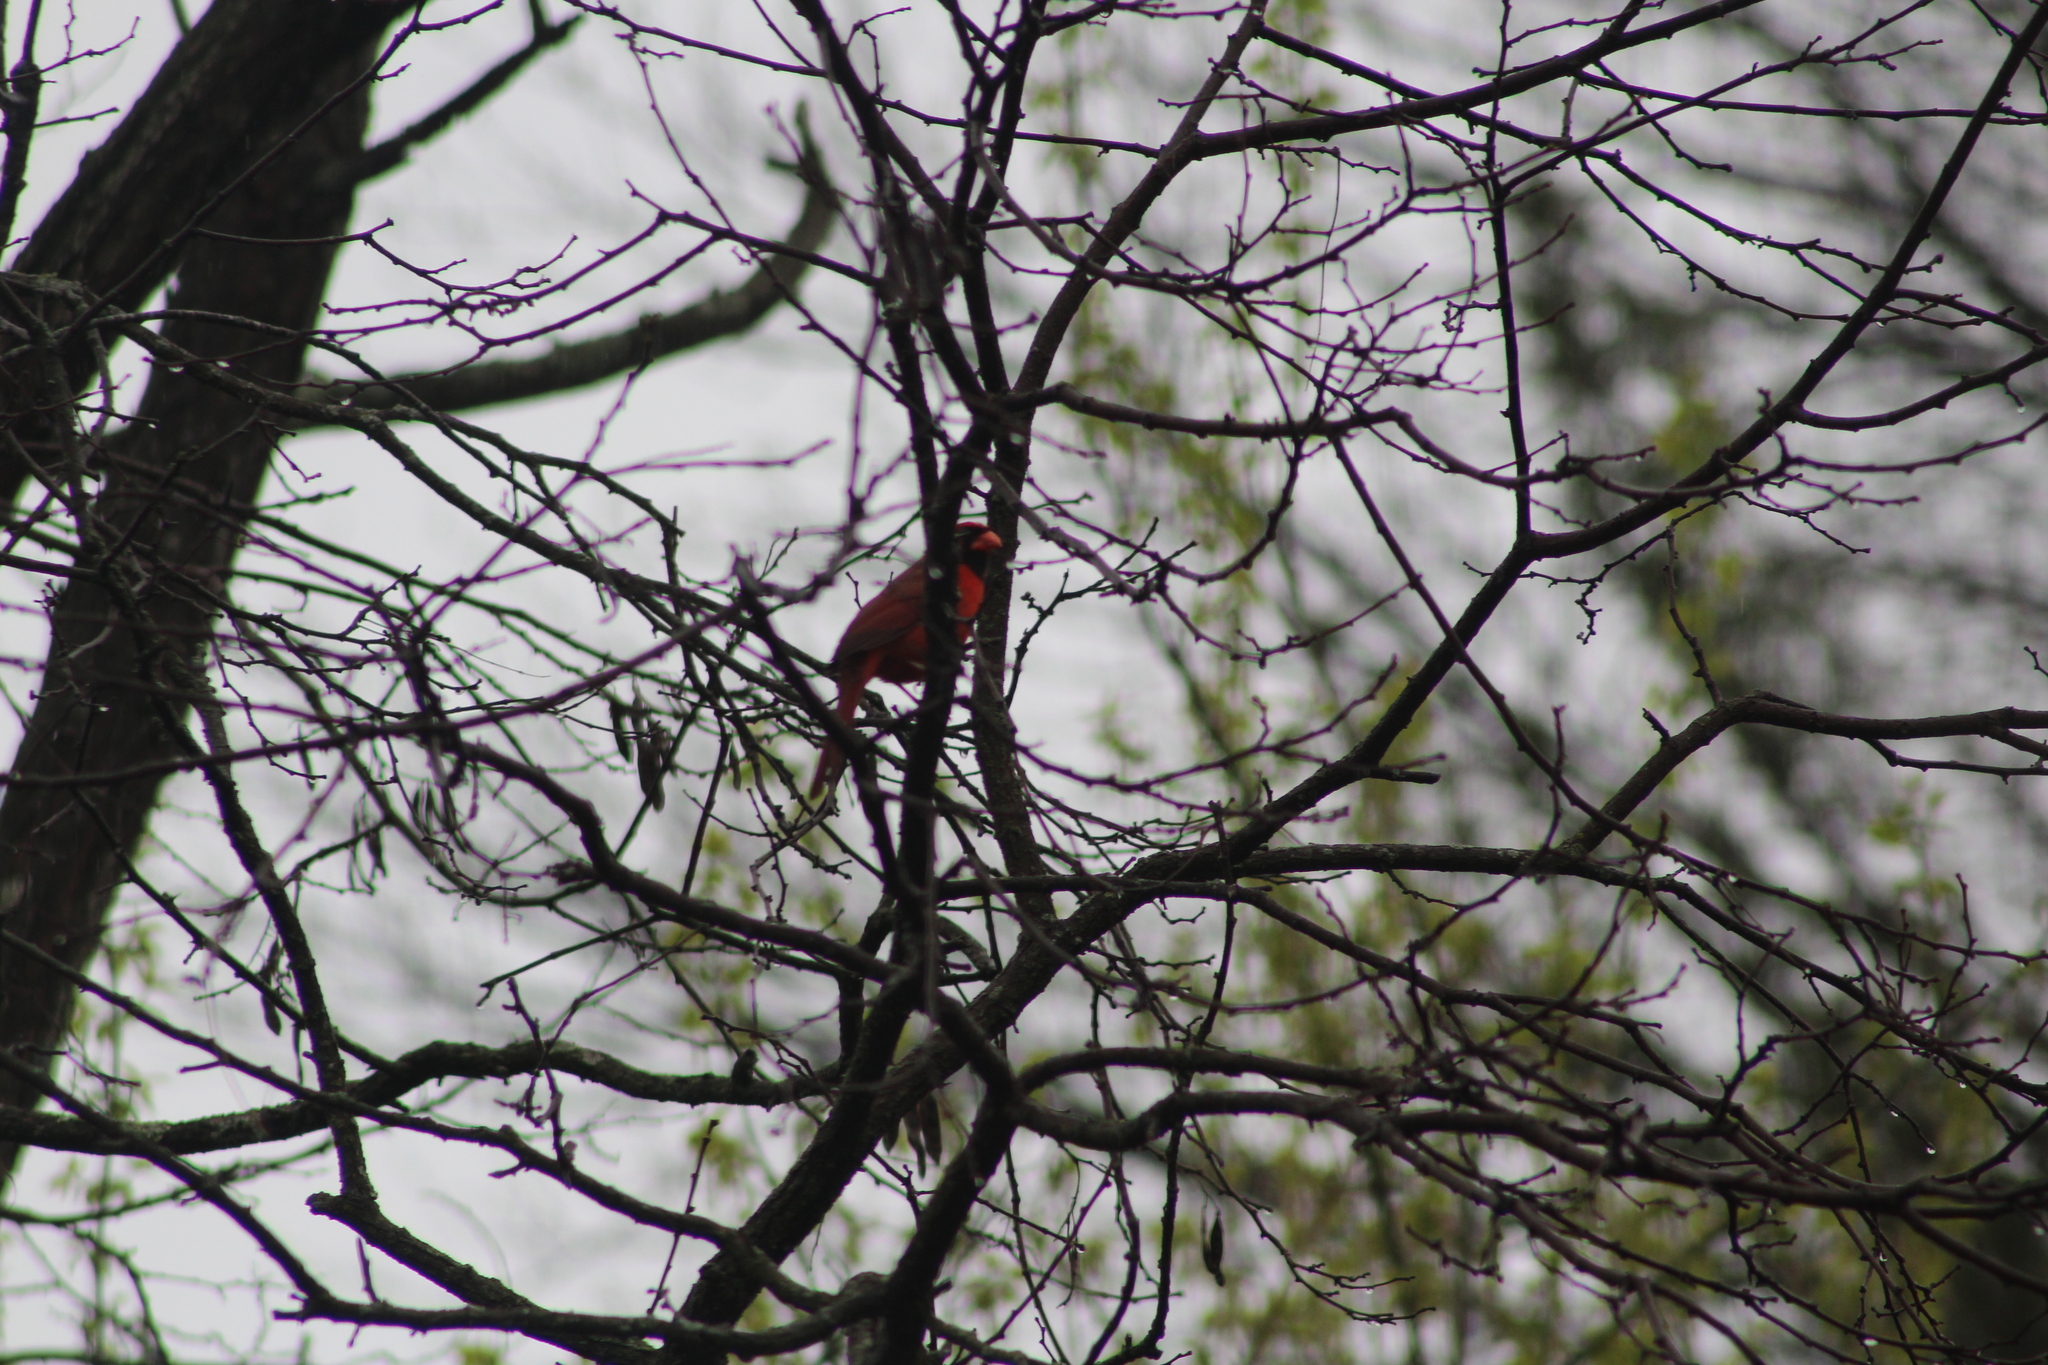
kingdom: Animalia
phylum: Chordata
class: Aves
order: Passeriformes
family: Cardinalidae
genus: Cardinalis
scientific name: Cardinalis cardinalis
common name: Northern cardinal
